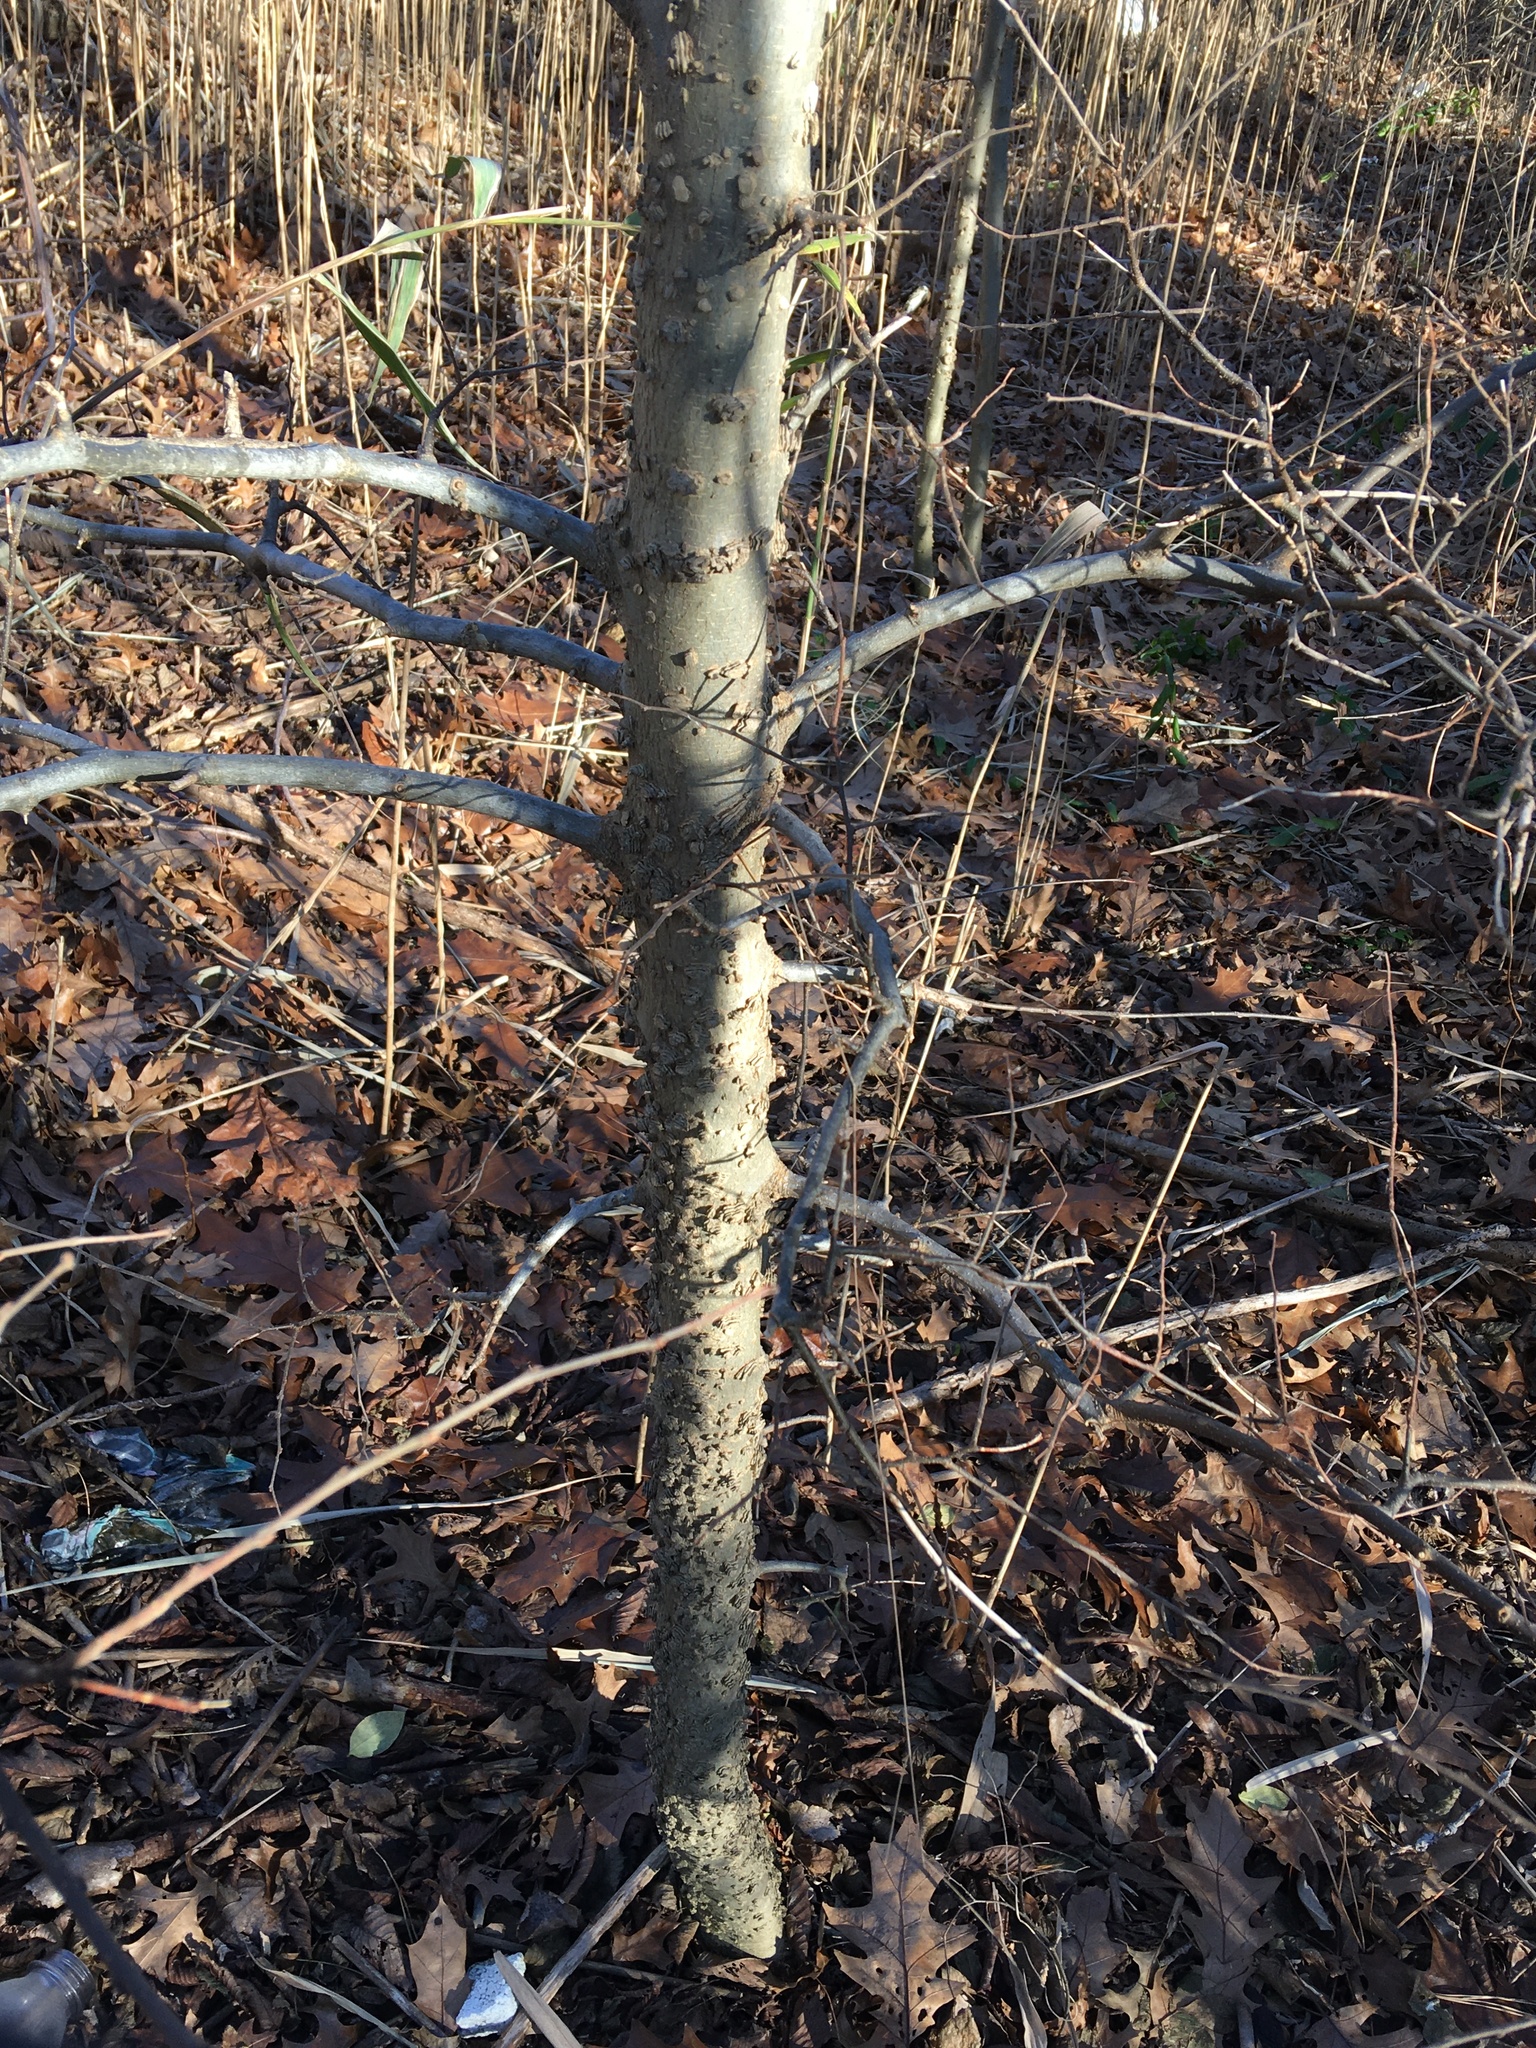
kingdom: Plantae
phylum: Tracheophyta
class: Magnoliopsida
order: Rosales
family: Cannabaceae
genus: Celtis
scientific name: Celtis occidentalis
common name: Common hackberry
